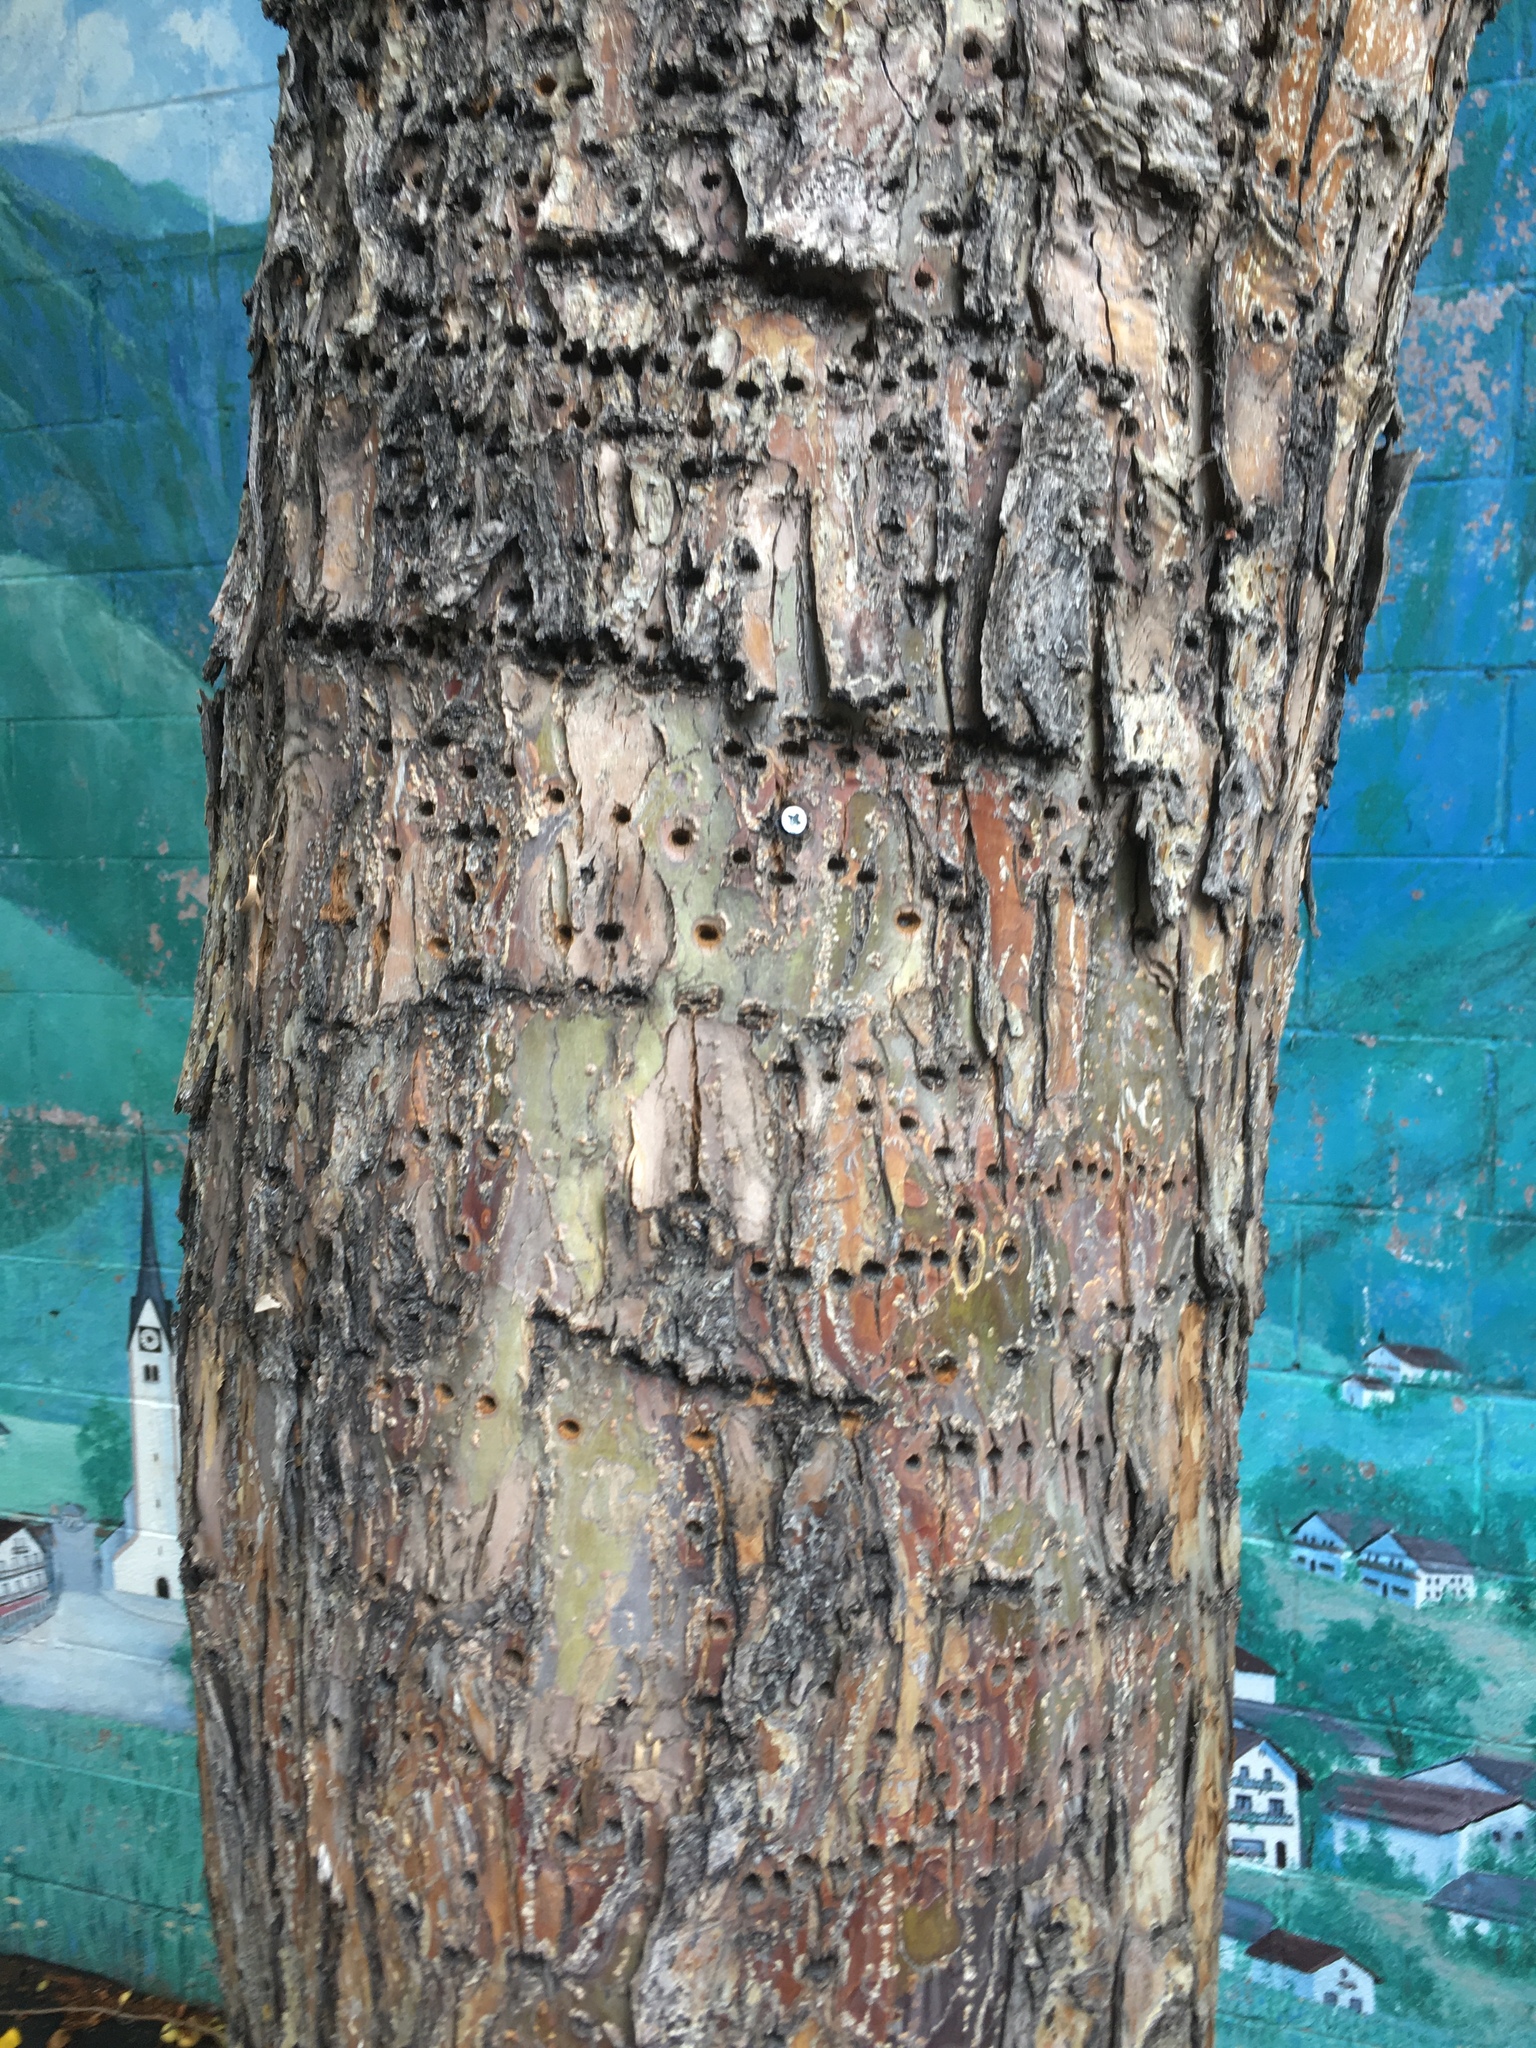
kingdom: Animalia
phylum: Chordata
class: Aves
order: Piciformes
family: Picidae
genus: Sphyrapicus
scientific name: Sphyrapicus
